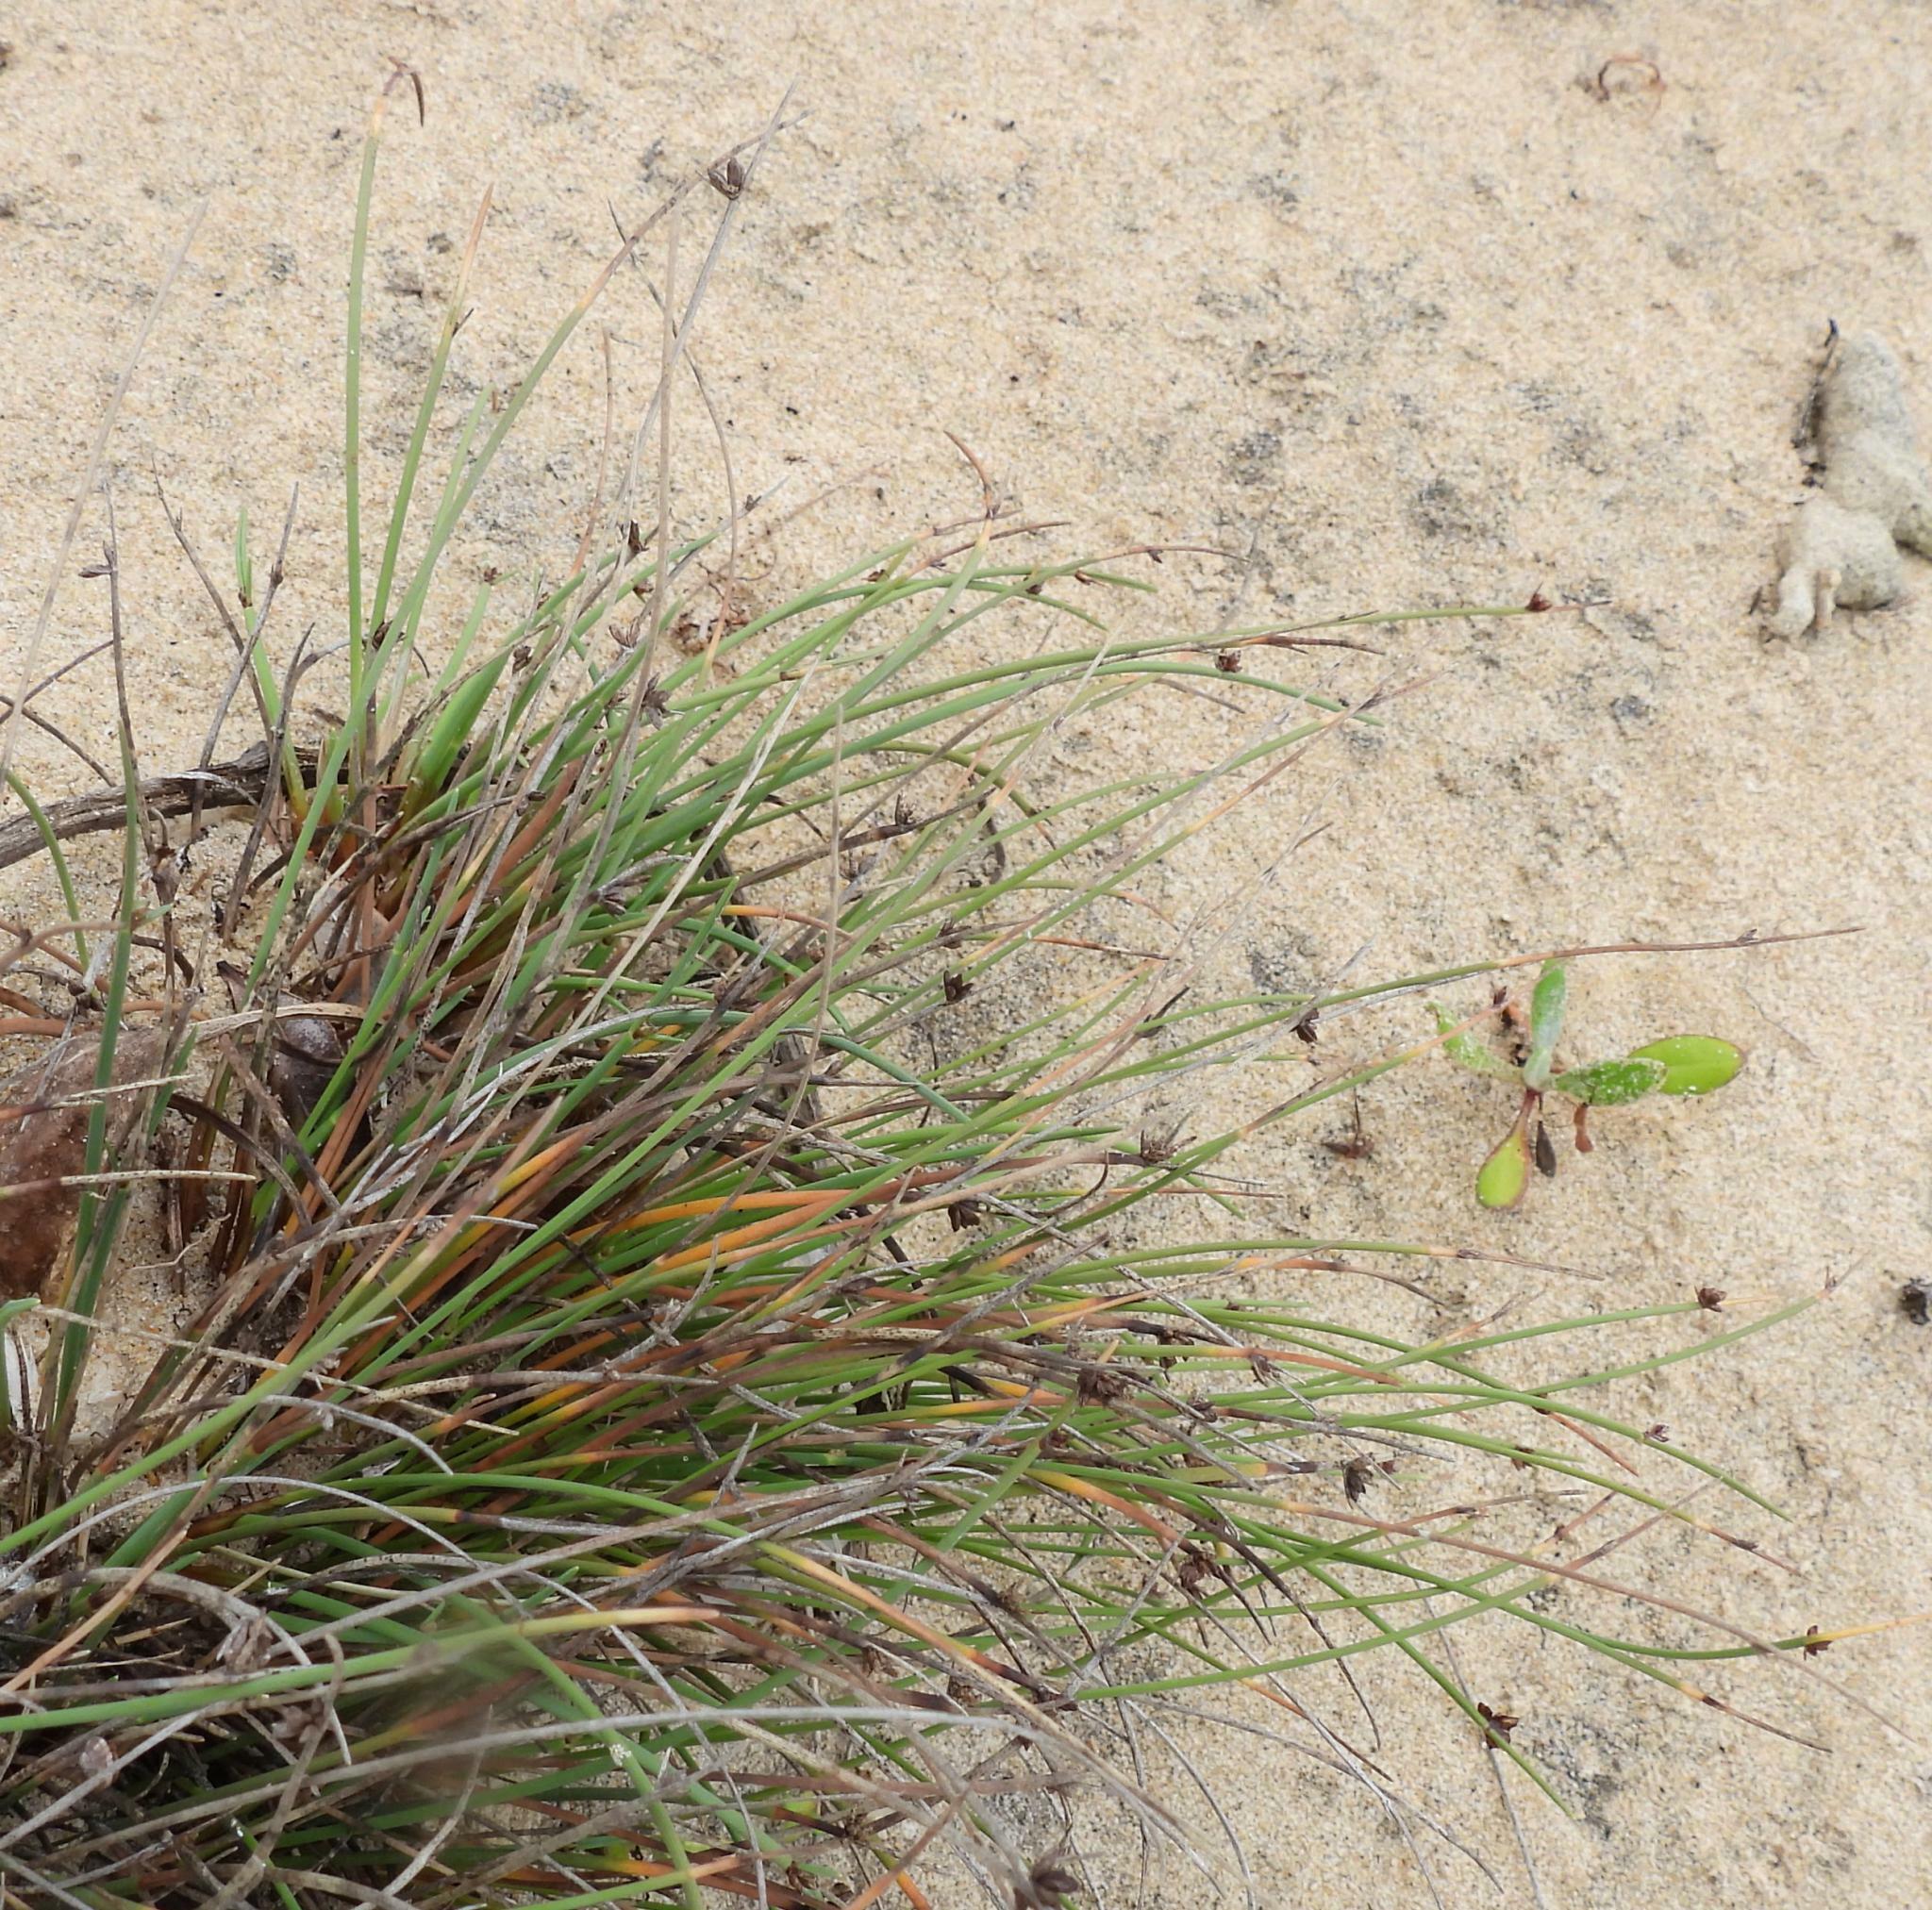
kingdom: Plantae
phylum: Tracheophyta
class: Liliopsida
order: Poales
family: Cyperaceae
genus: Ficinia
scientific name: Ficinia lateralis
